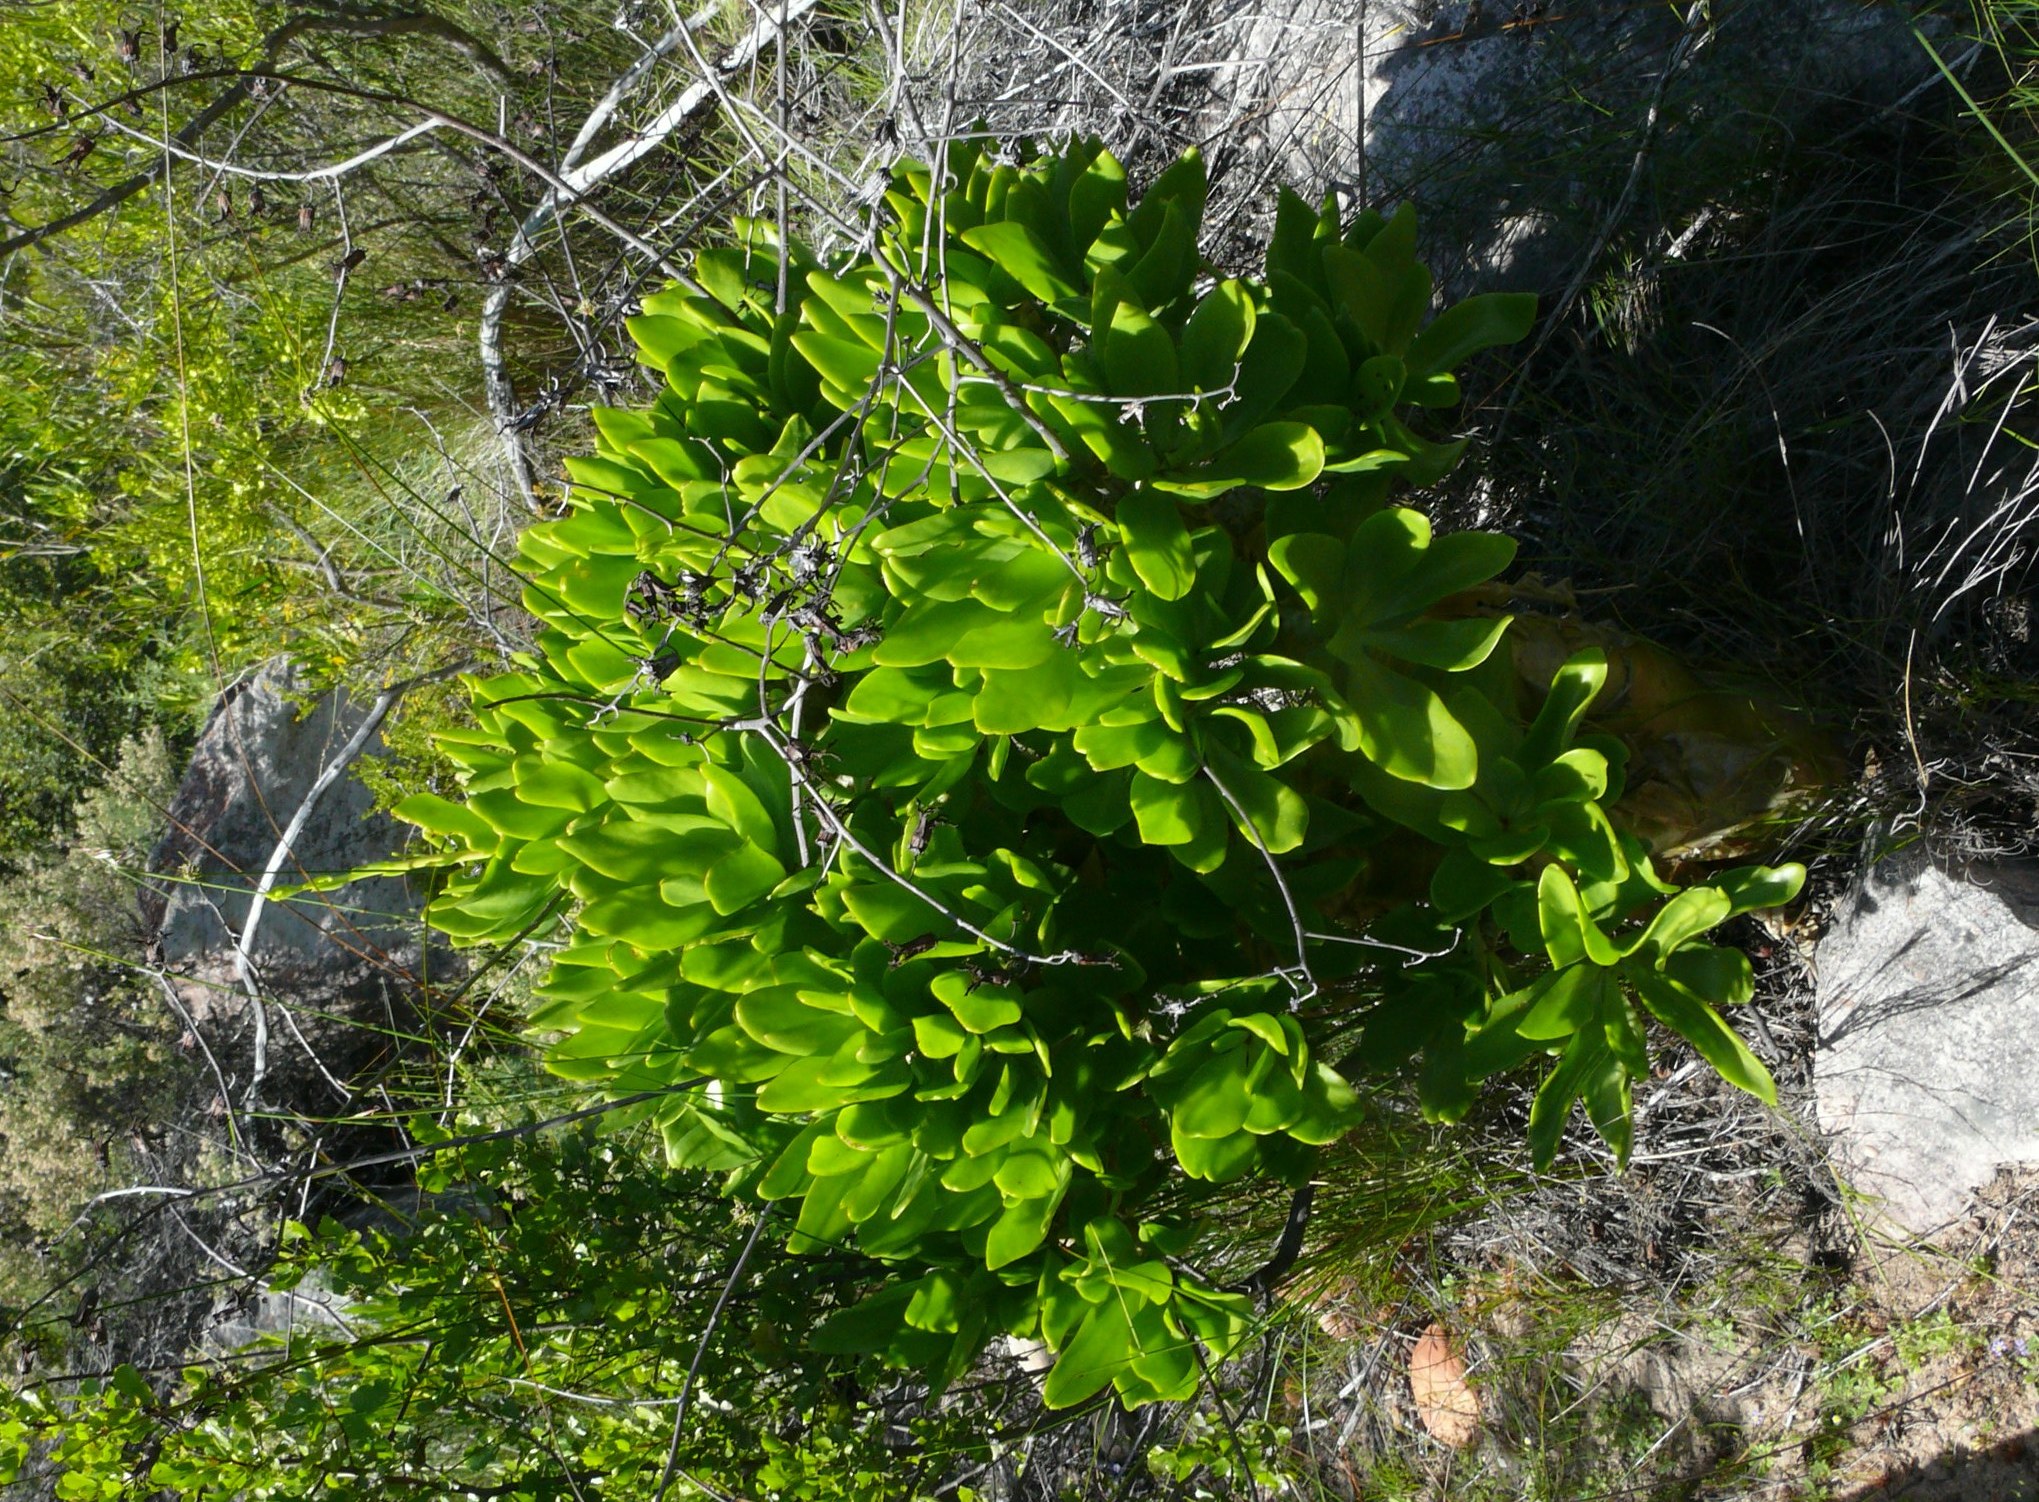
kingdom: Plantae
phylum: Tracheophyta
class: Magnoliopsida
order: Saxifragales
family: Crassulaceae
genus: Tylecodon
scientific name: Tylecodon paniculatus
